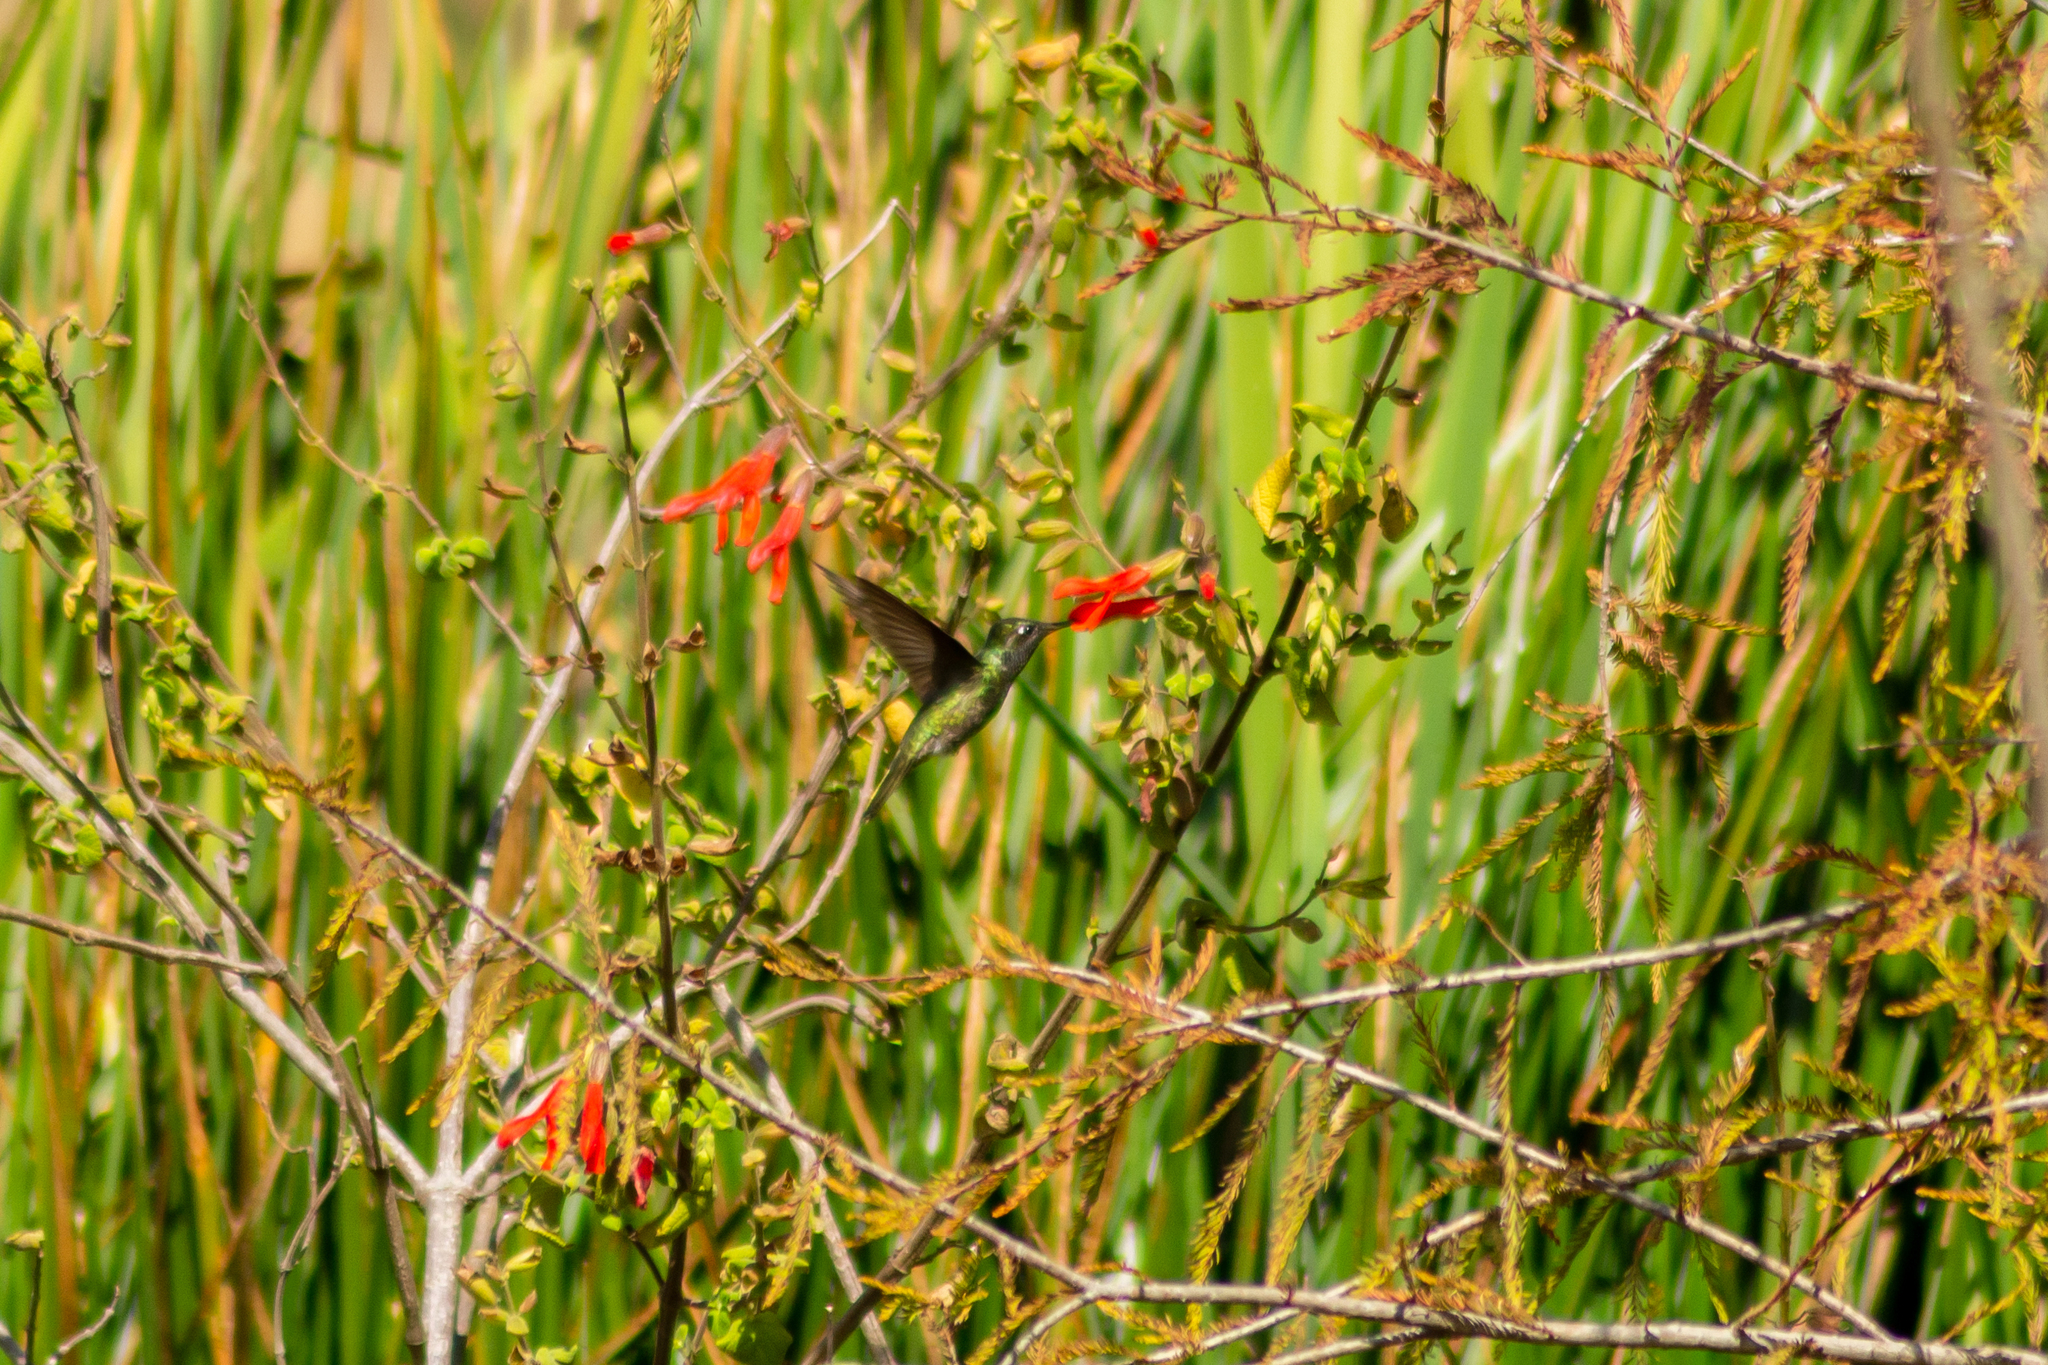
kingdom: Animalia
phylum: Chordata
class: Aves
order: Apodiformes
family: Trochilidae
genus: Cynanthus
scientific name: Cynanthus latirostris
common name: Broad-billed hummingbird
